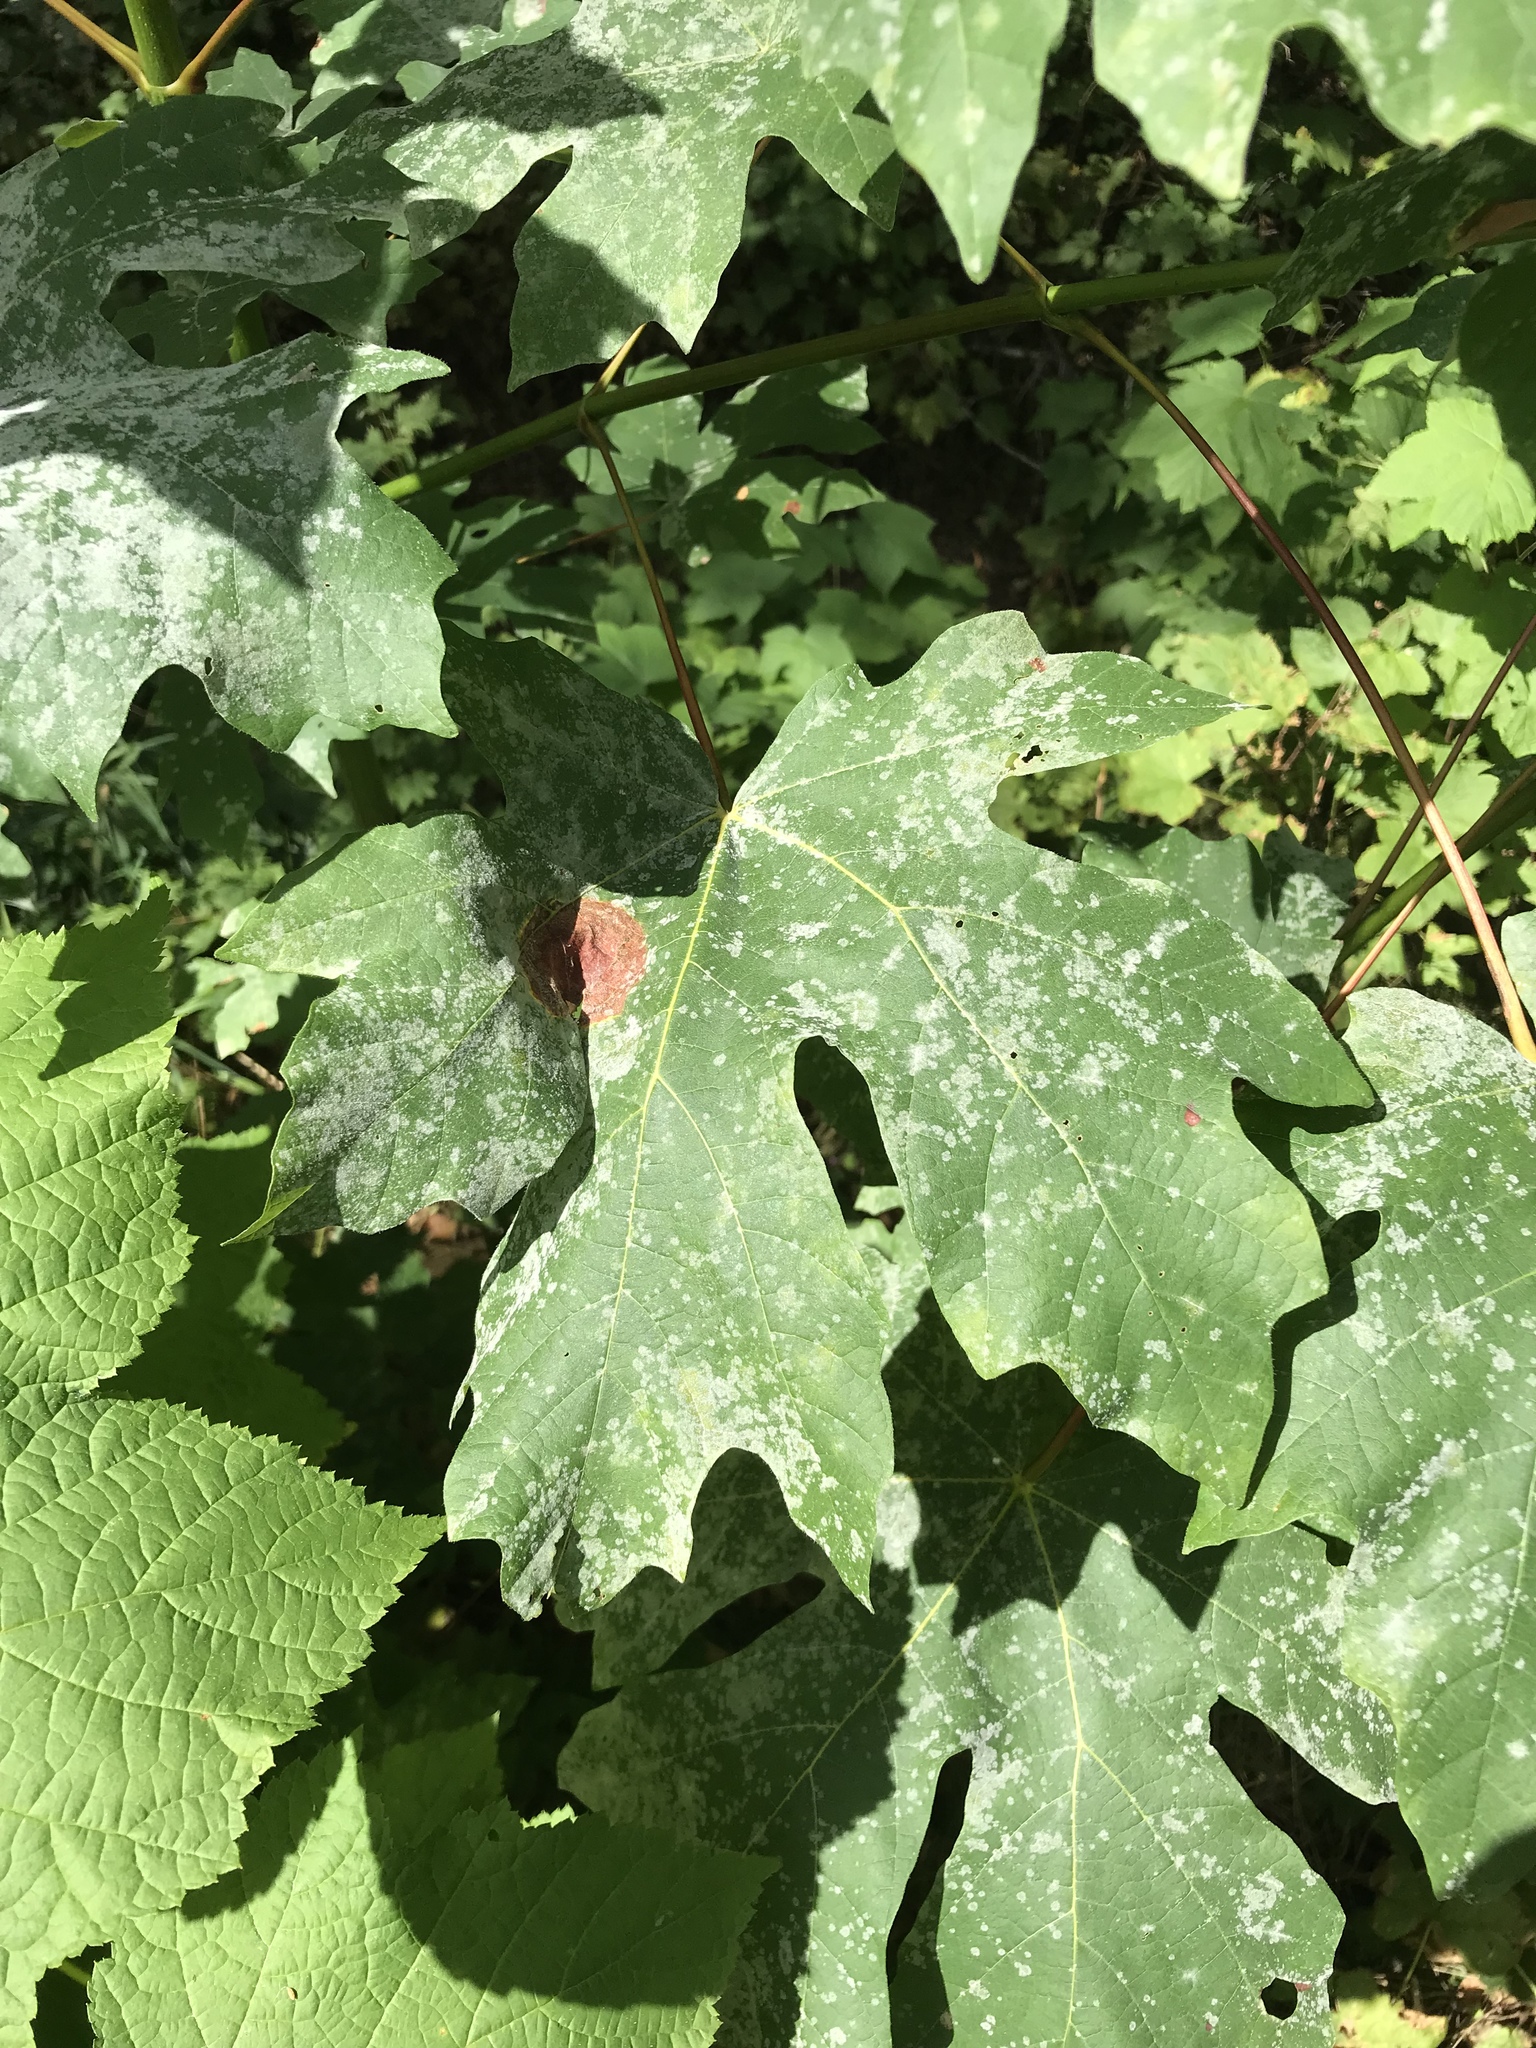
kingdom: Plantae
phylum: Tracheophyta
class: Magnoliopsida
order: Sapindales
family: Sapindaceae
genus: Acer
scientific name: Acer macrophyllum
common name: Oregon maple
